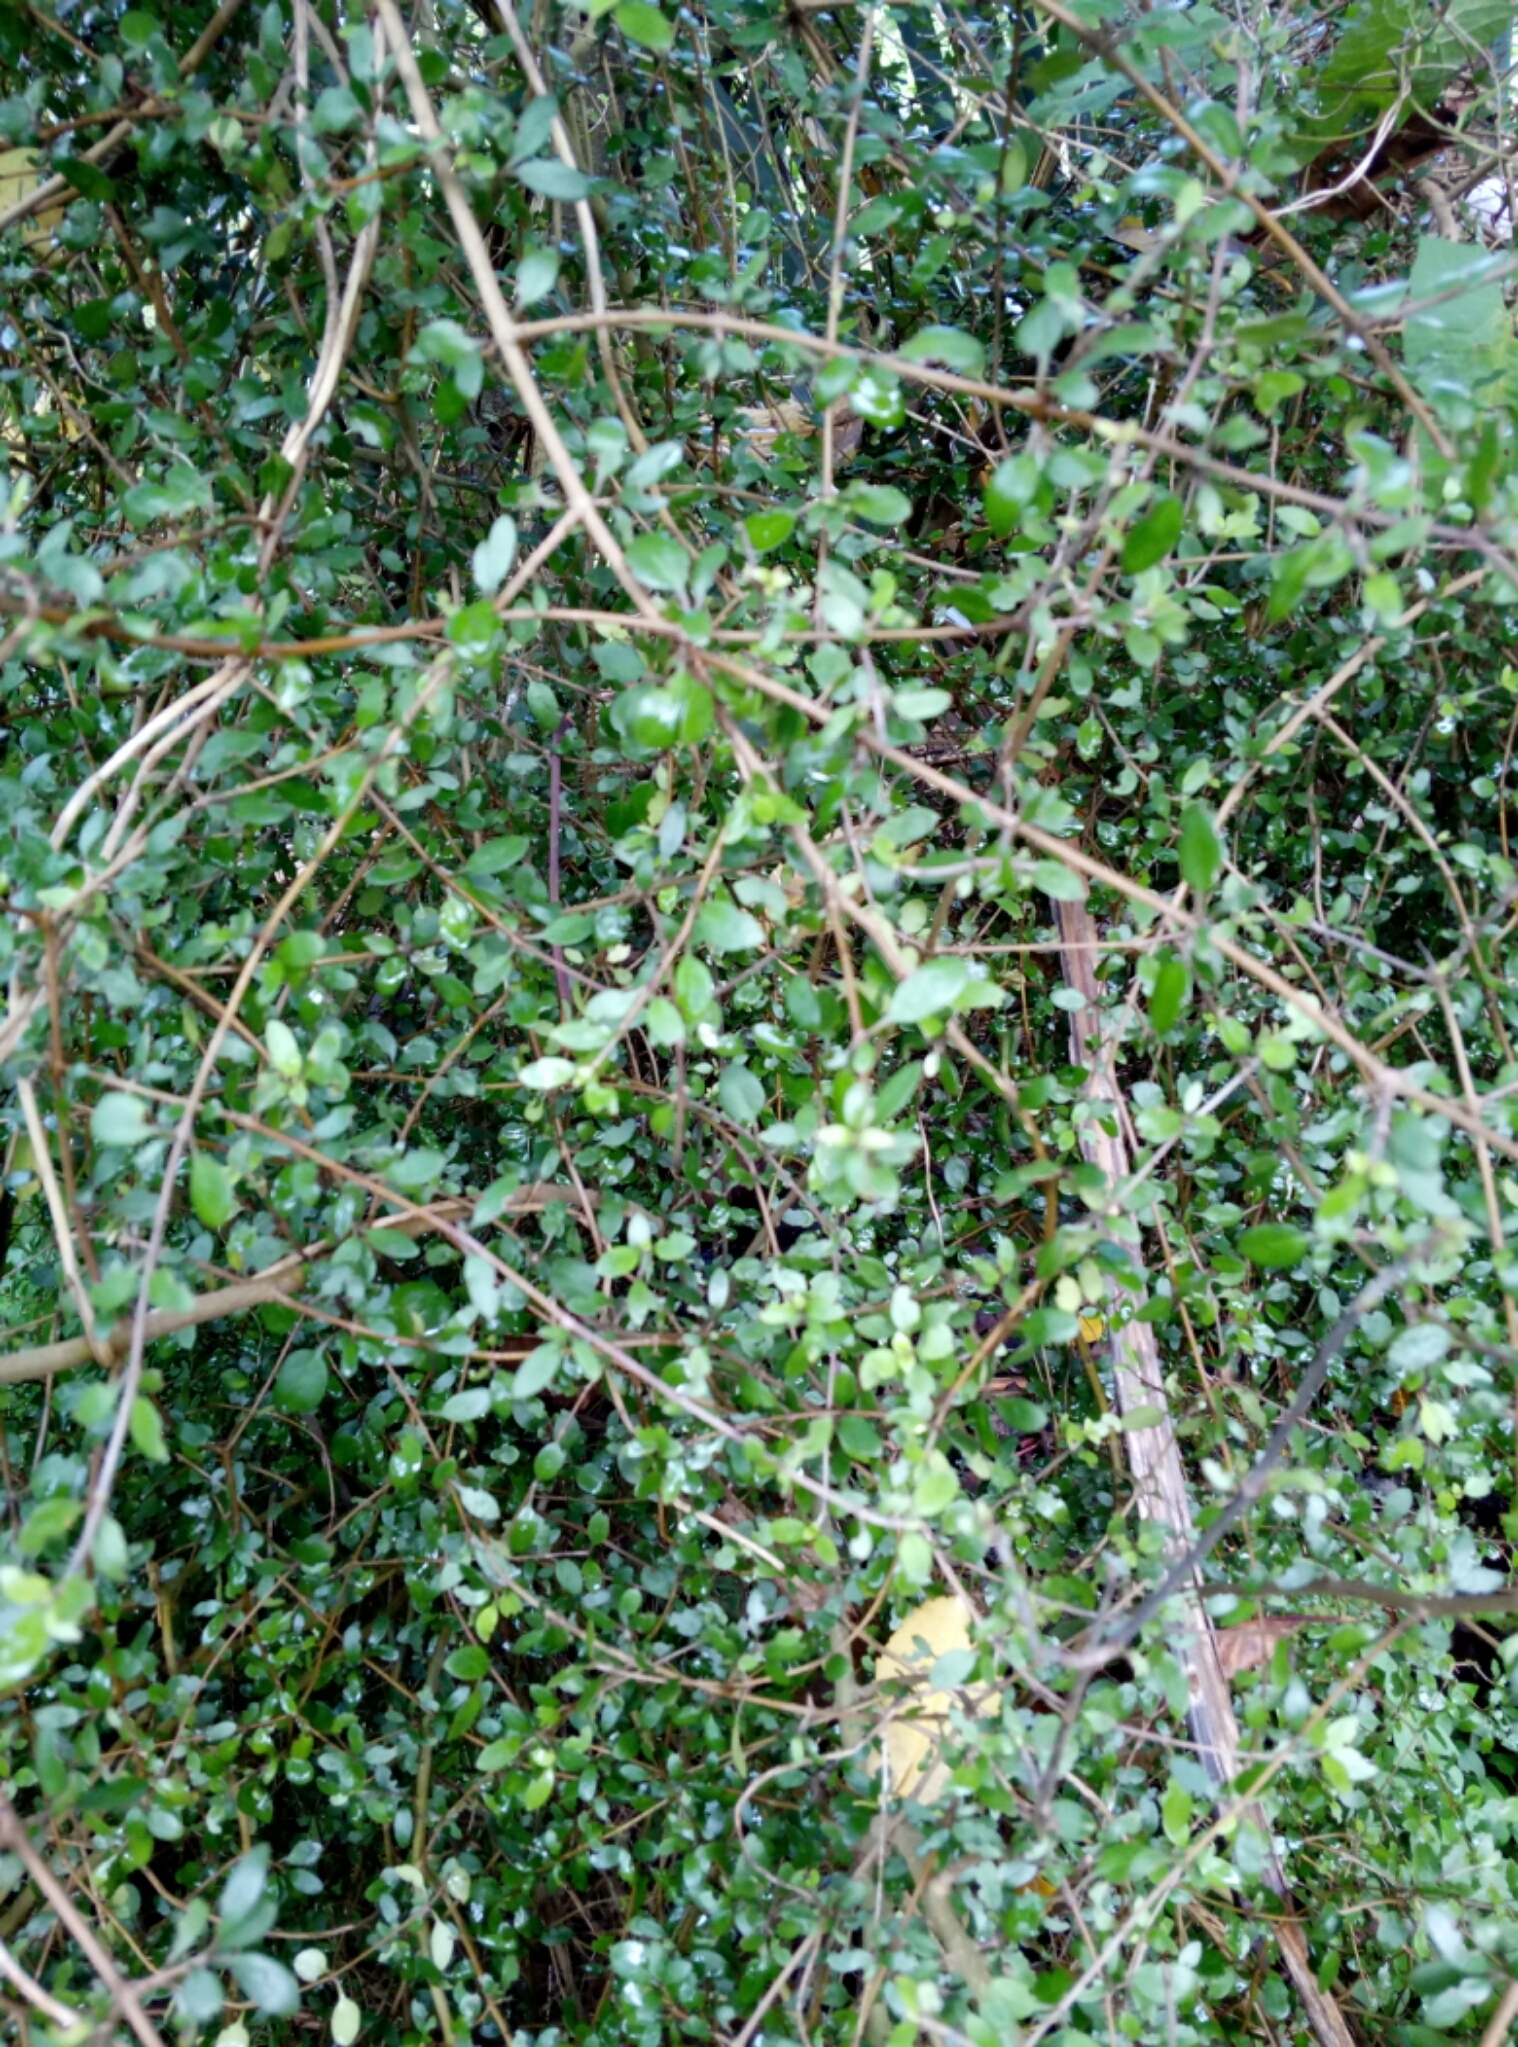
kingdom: Plantae
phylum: Tracheophyta
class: Magnoliopsida
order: Gentianales
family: Rubiaceae
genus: Coprosma
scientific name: Coprosma propinqua
